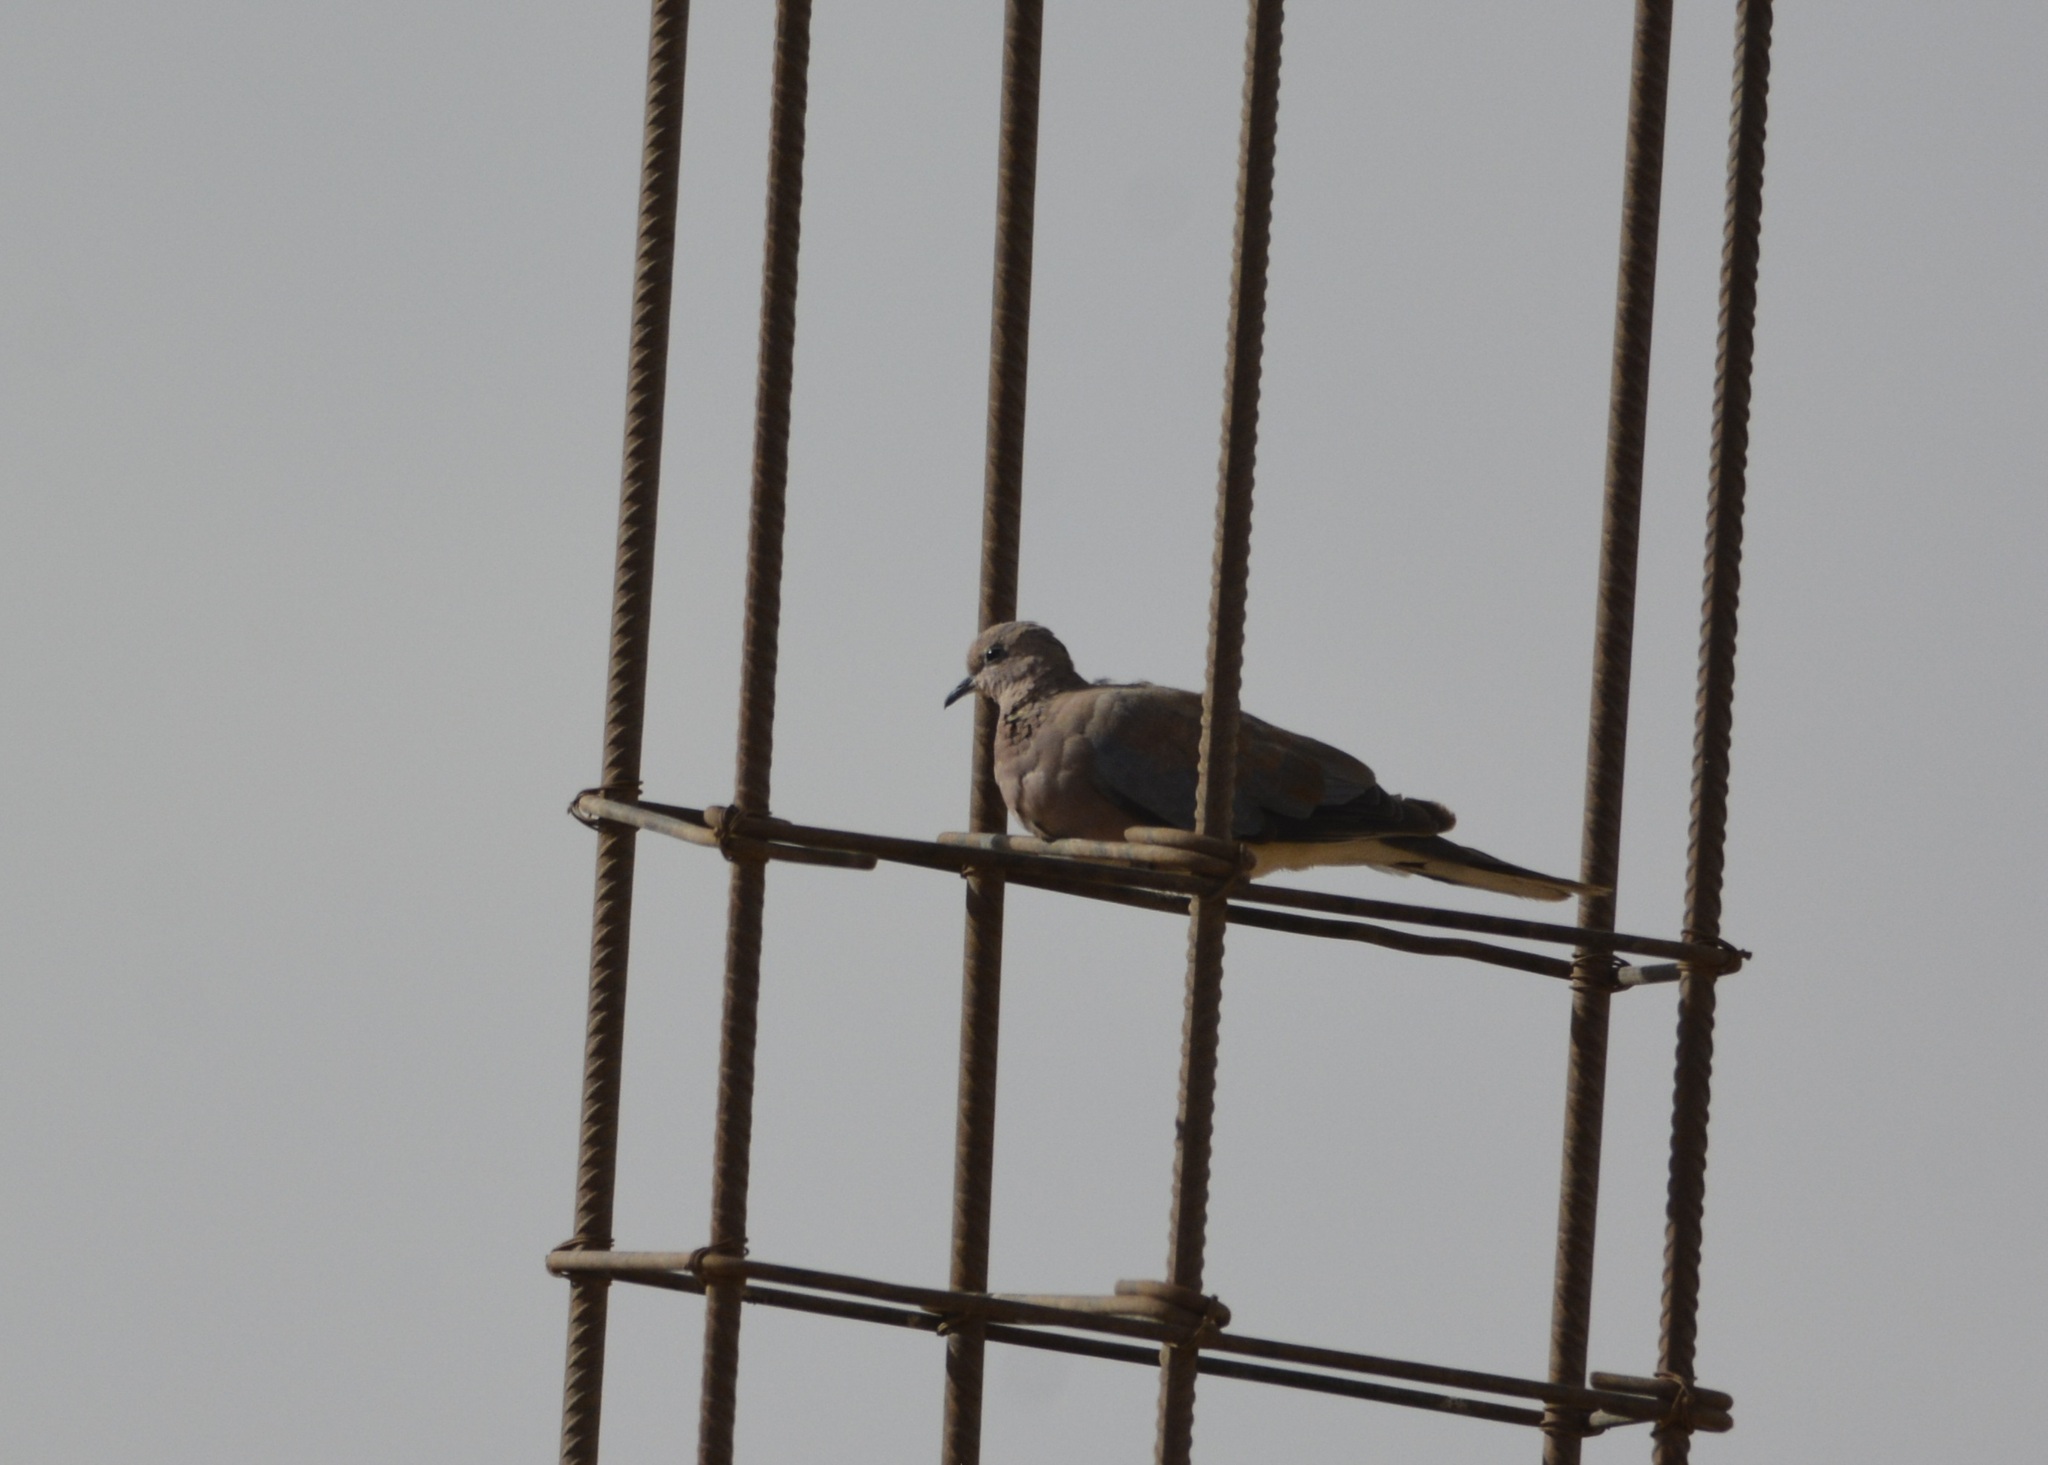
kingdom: Animalia
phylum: Chordata
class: Aves
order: Columbiformes
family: Columbidae
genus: Spilopelia
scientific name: Spilopelia senegalensis
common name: Laughing dove
